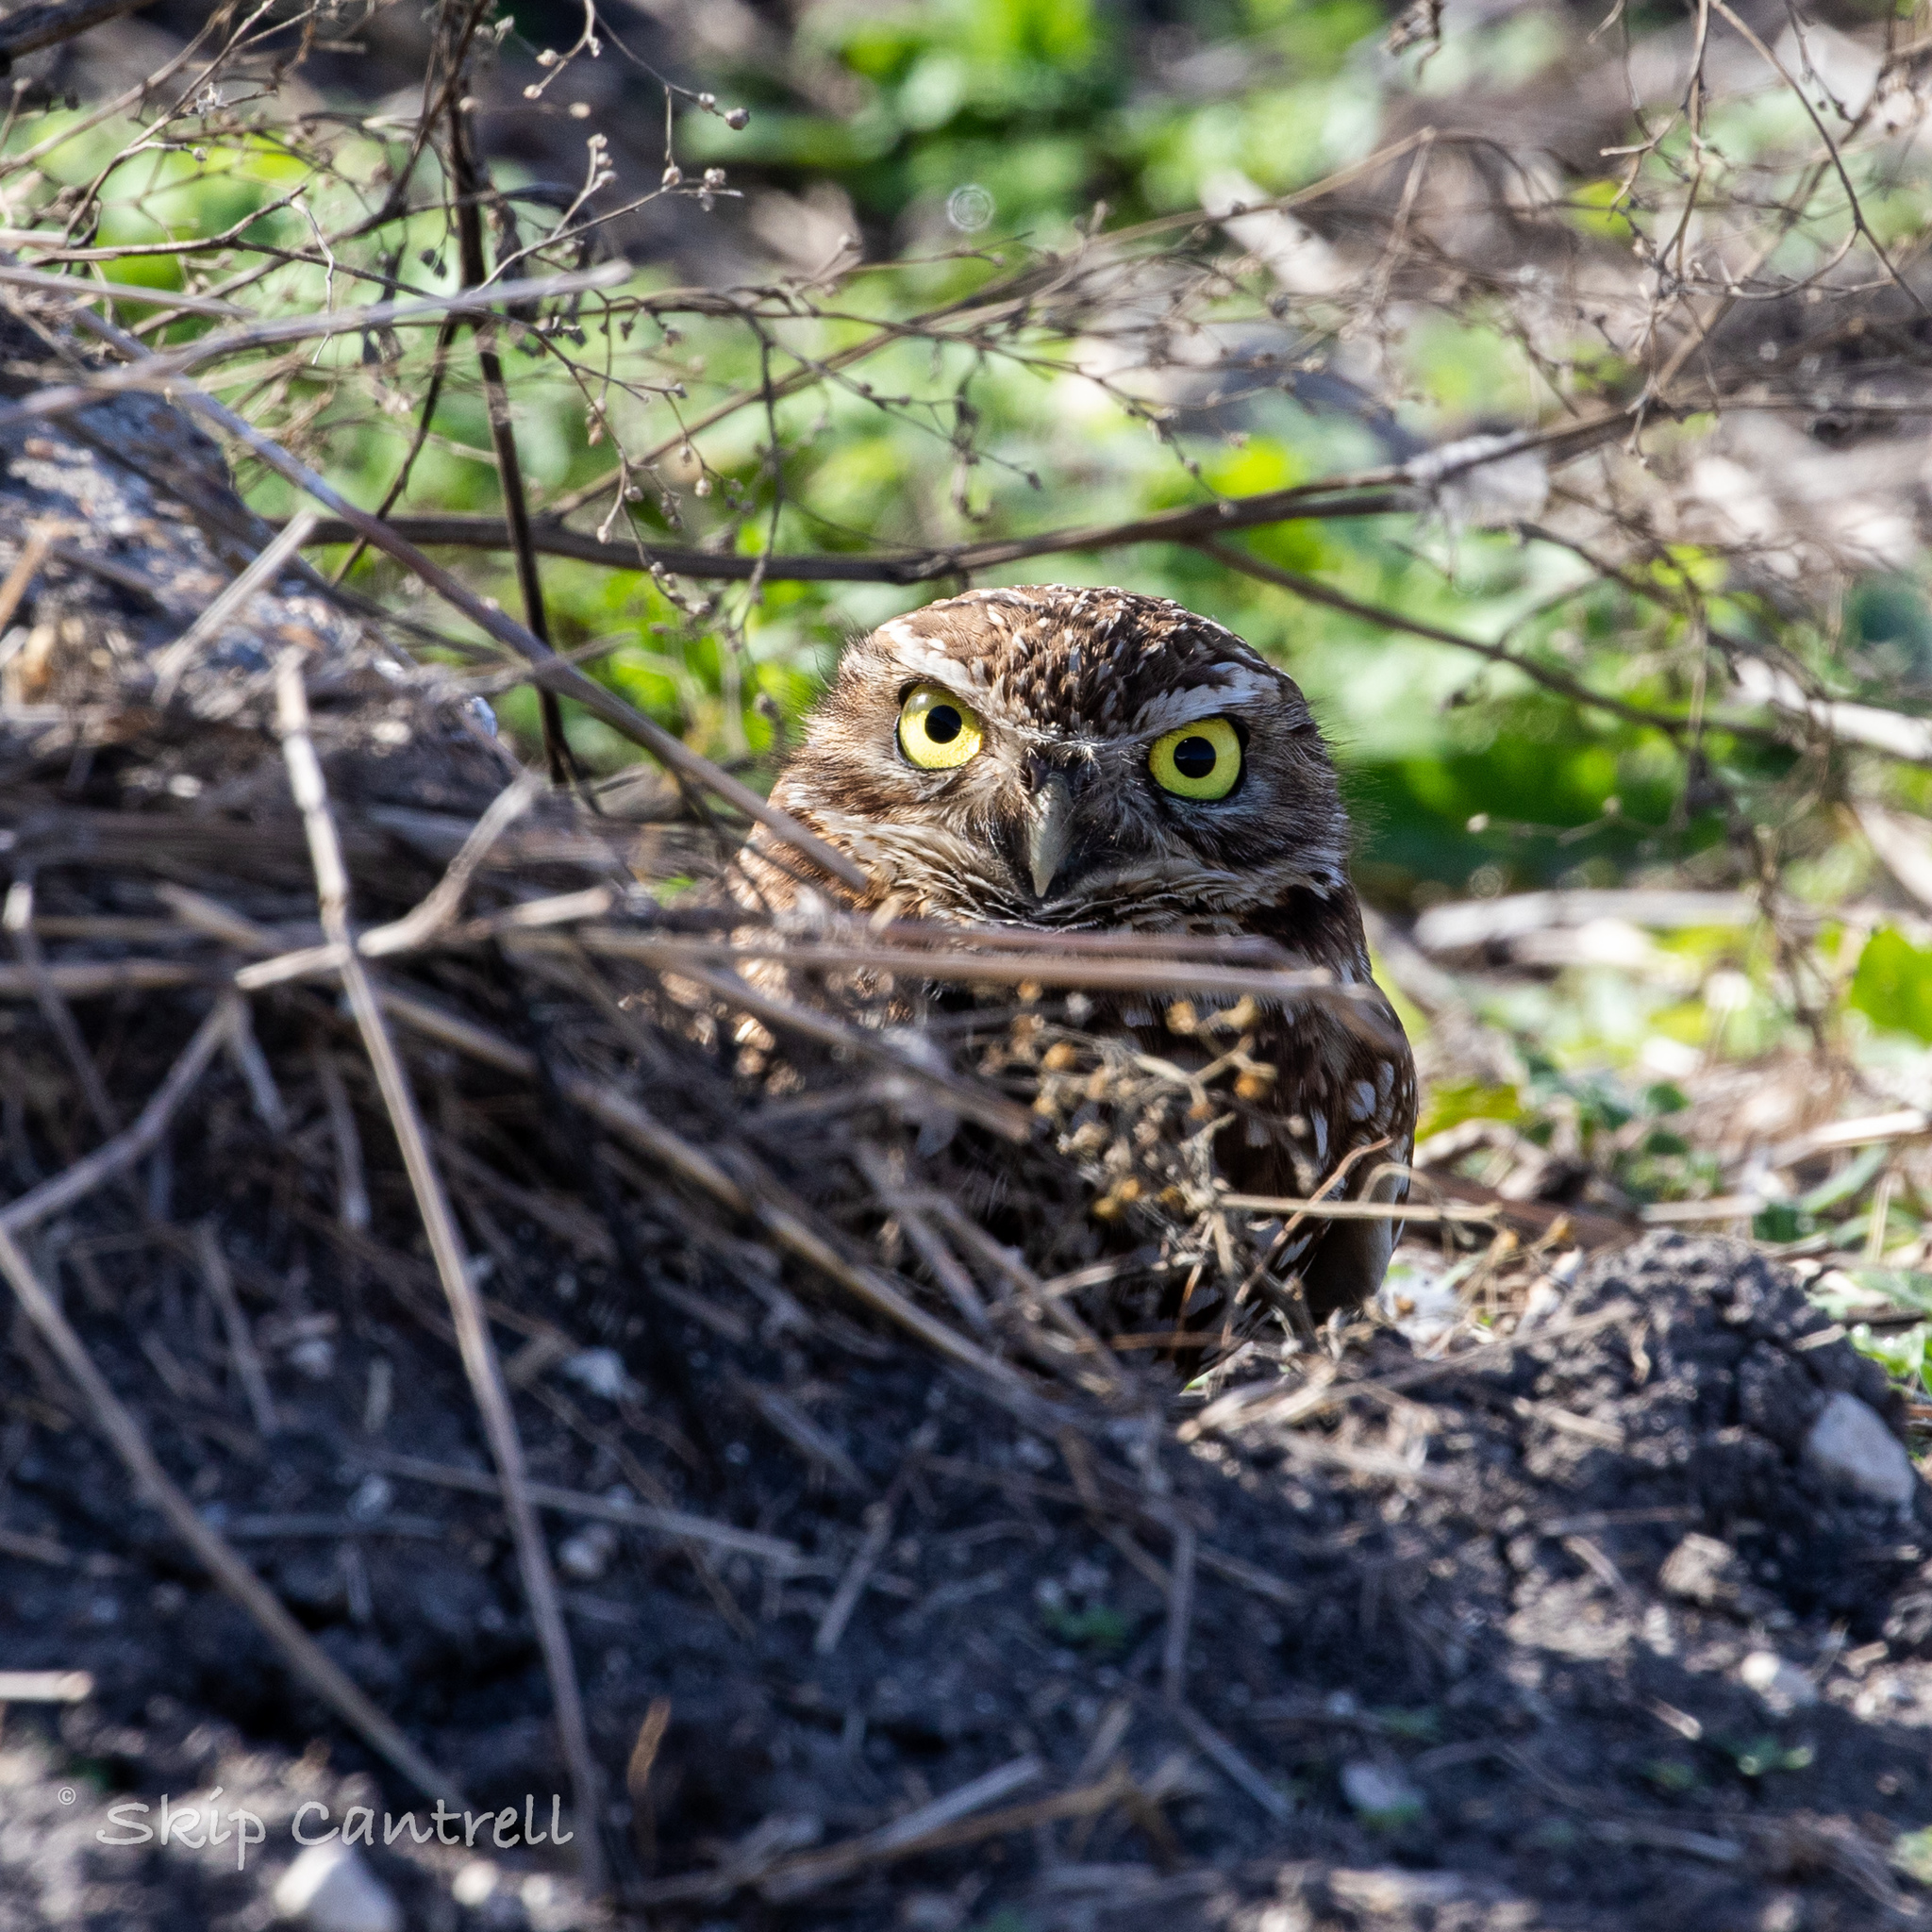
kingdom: Animalia
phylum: Chordata
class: Aves
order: Strigiformes
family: Strigidae
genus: Athene
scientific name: Athene cunicularia
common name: Burrowing owl
